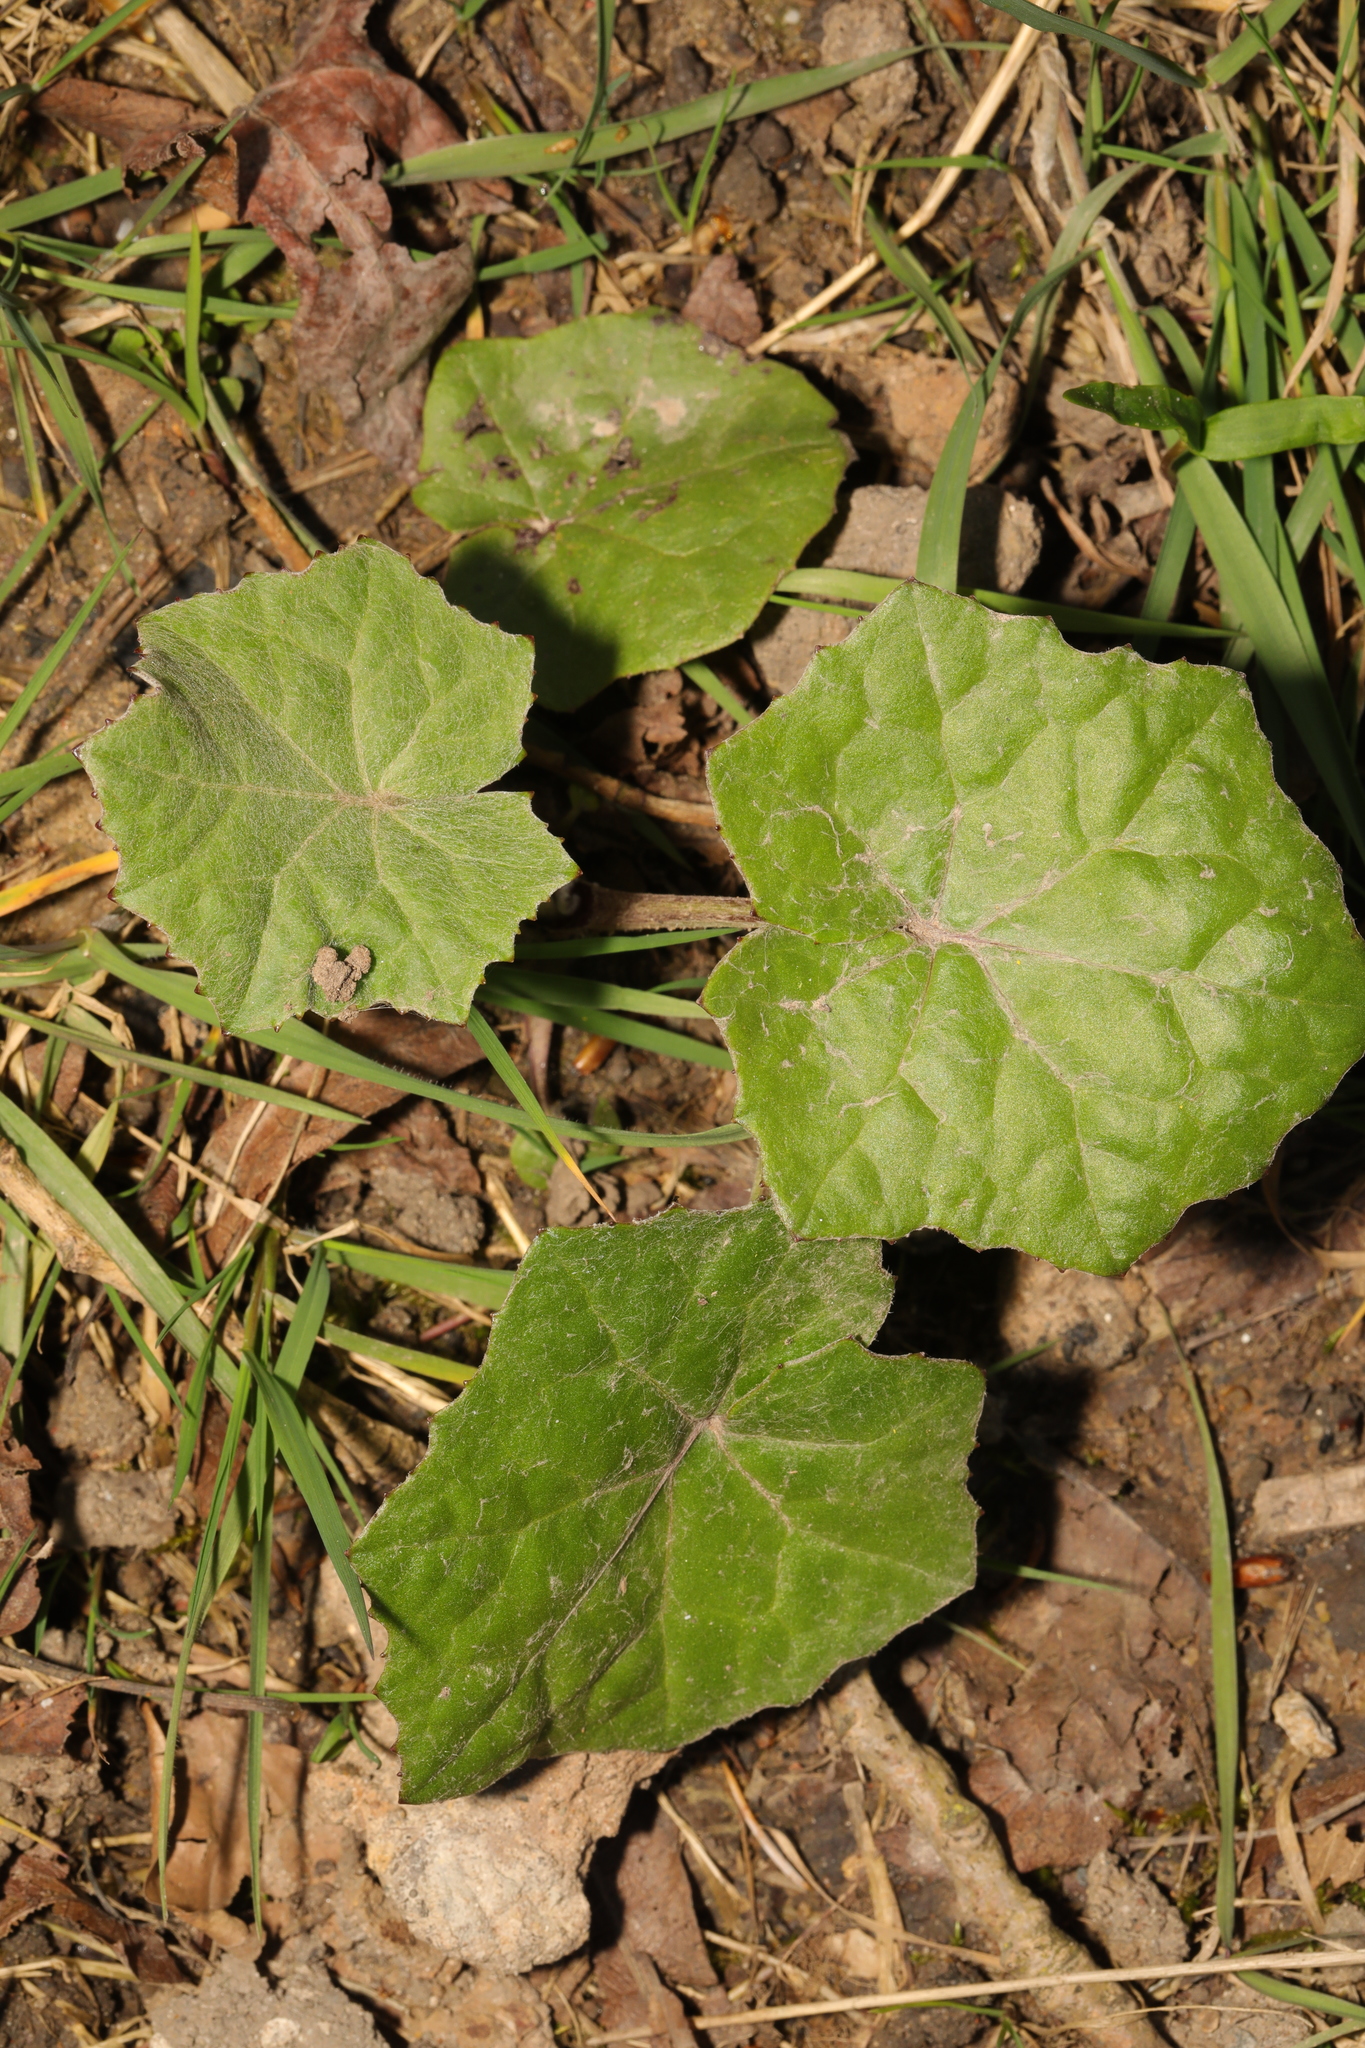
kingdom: Plantae
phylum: Tracheophyta
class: Magnoliopsida
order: Asterales
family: Asteraceae
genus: Tussilago
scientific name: Tussilago farfara
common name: Coltsfoot
